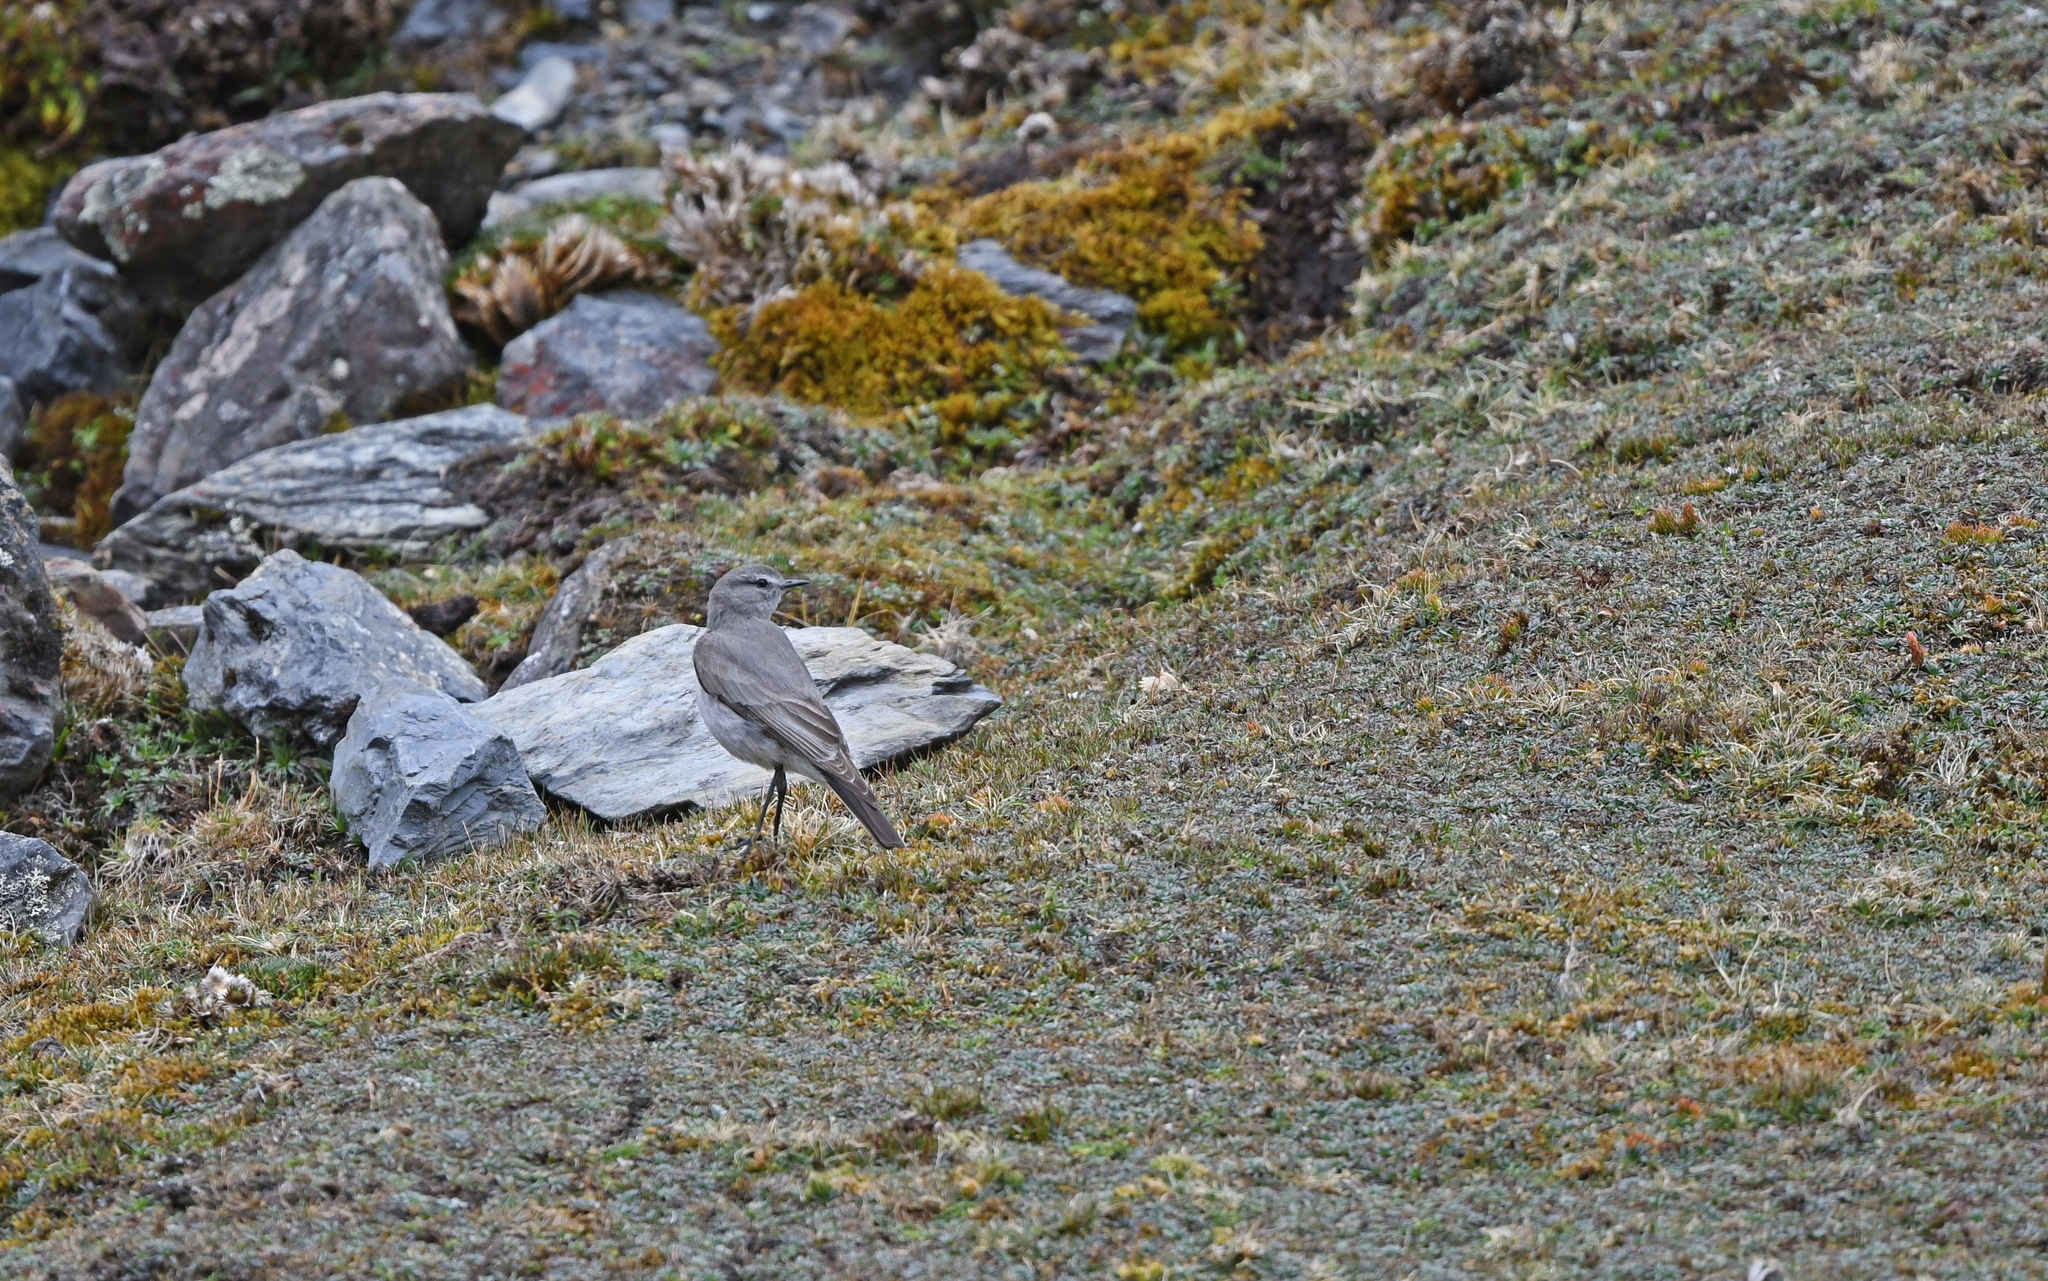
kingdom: Animalia
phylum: Chordata
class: Aves
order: Passeriformes
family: Tyrannidae
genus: Muscisaxicola
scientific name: Muscisaxicola griseus
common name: Taczanowski's ground-tyrant
